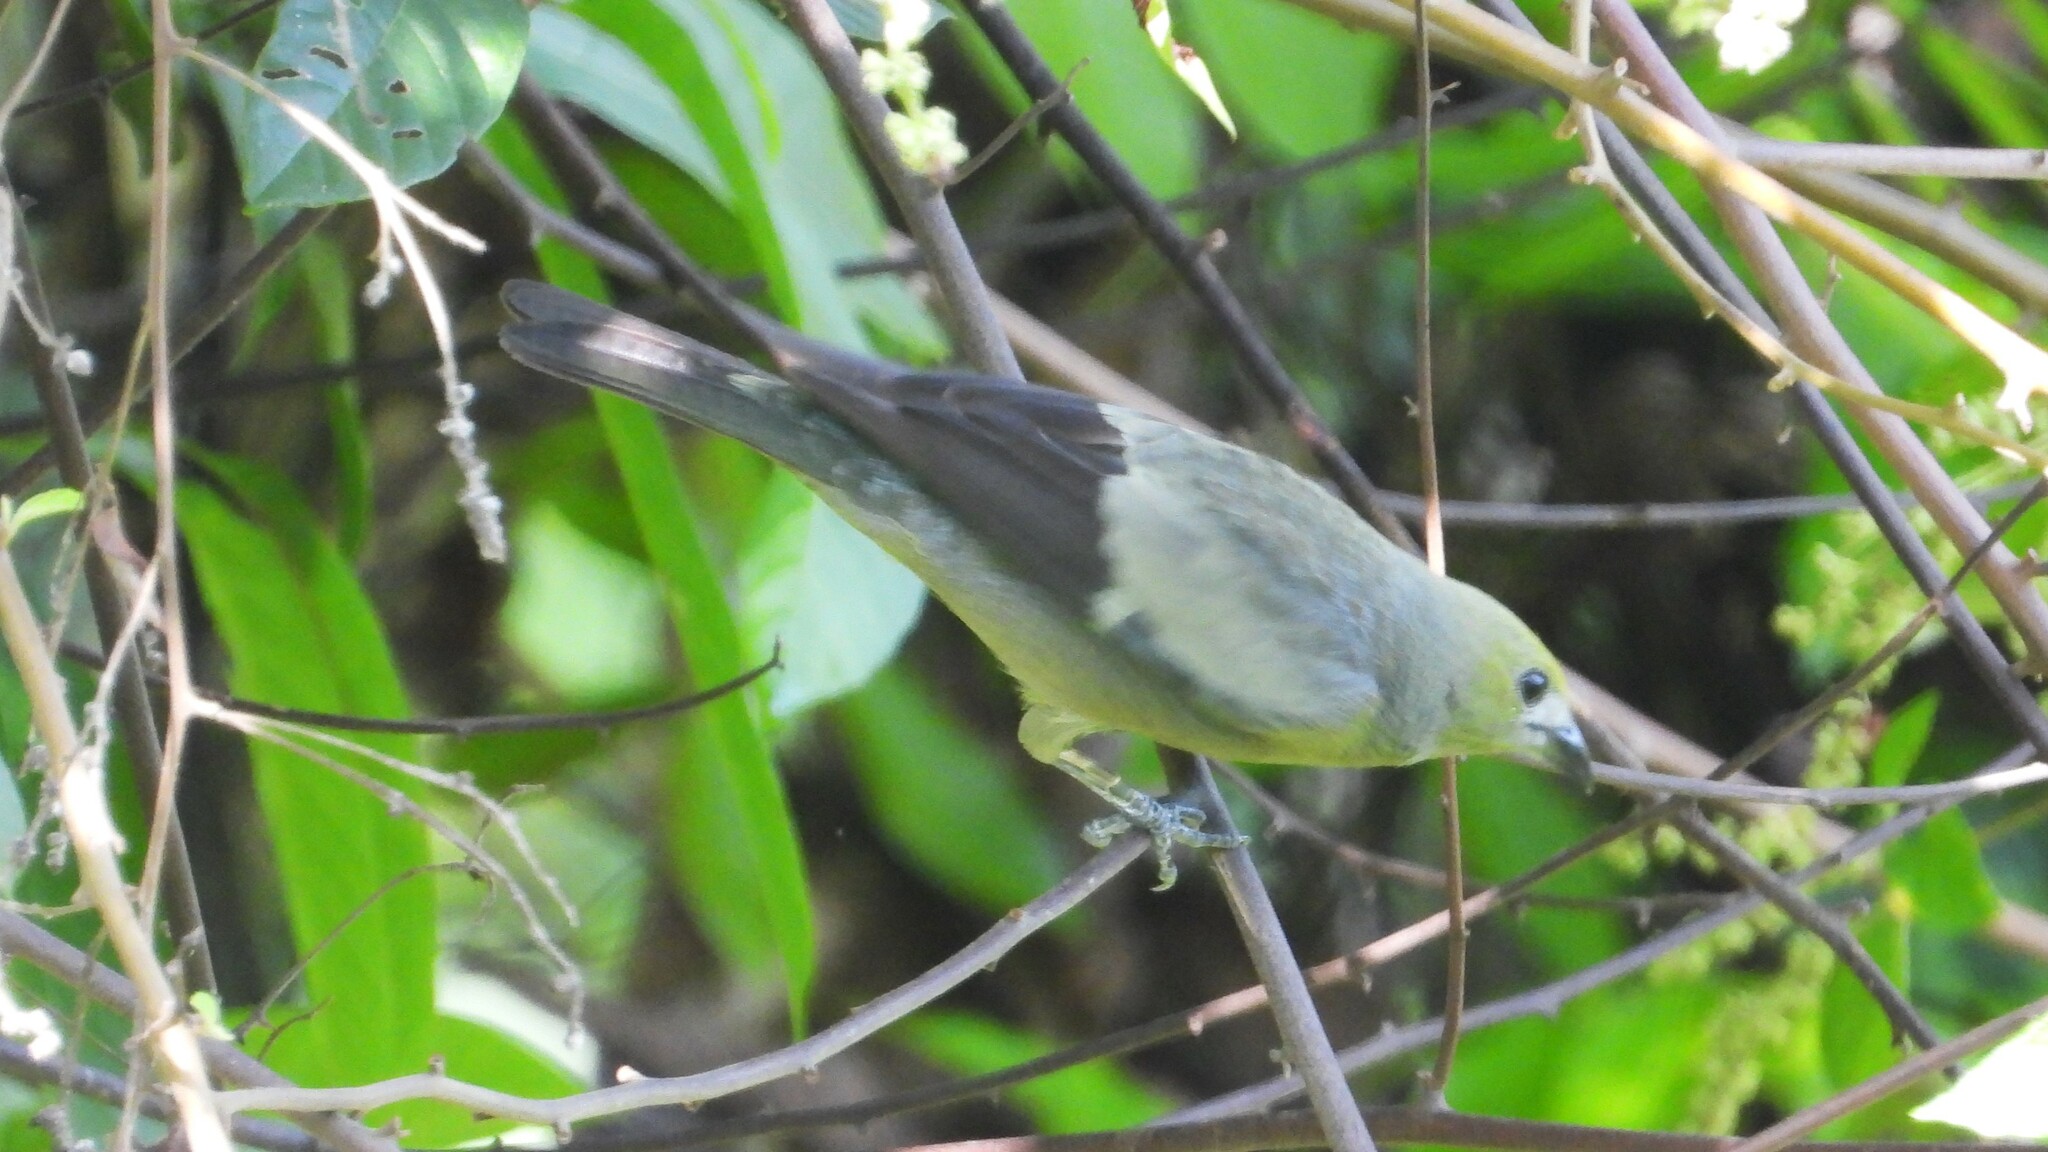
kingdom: Animalia
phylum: Chordata
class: Aves
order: Passeriformes
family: Thraupidae
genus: Thraupis
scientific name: Thraupis palmarum
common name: Palm tanager
